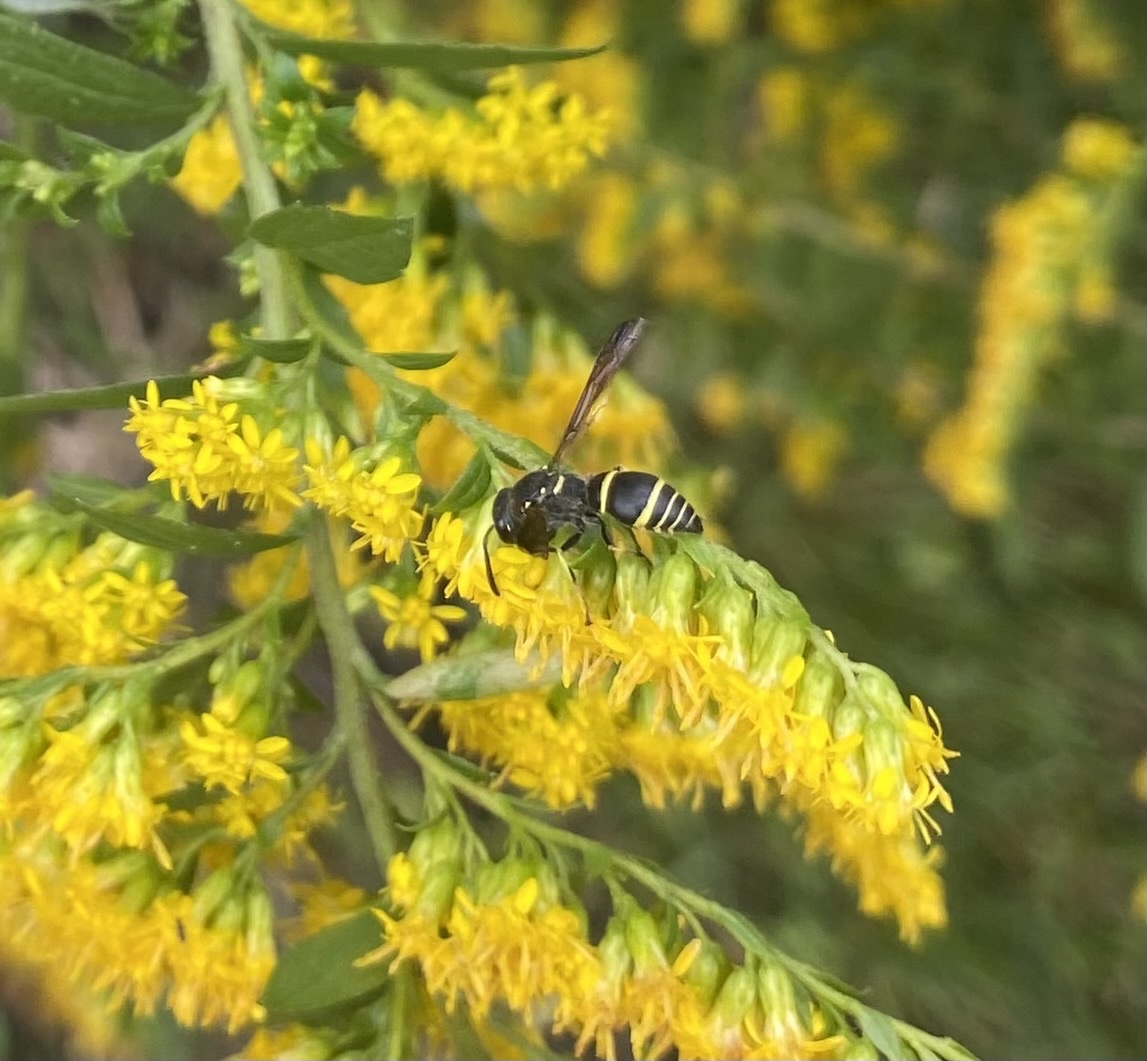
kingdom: Animalia
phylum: Arthropoda
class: Insecta
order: Hymenoptera
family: Vespidae
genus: Ancistrocerus
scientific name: Ancistrocerus adiabatus
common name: Bramble mason wasp
